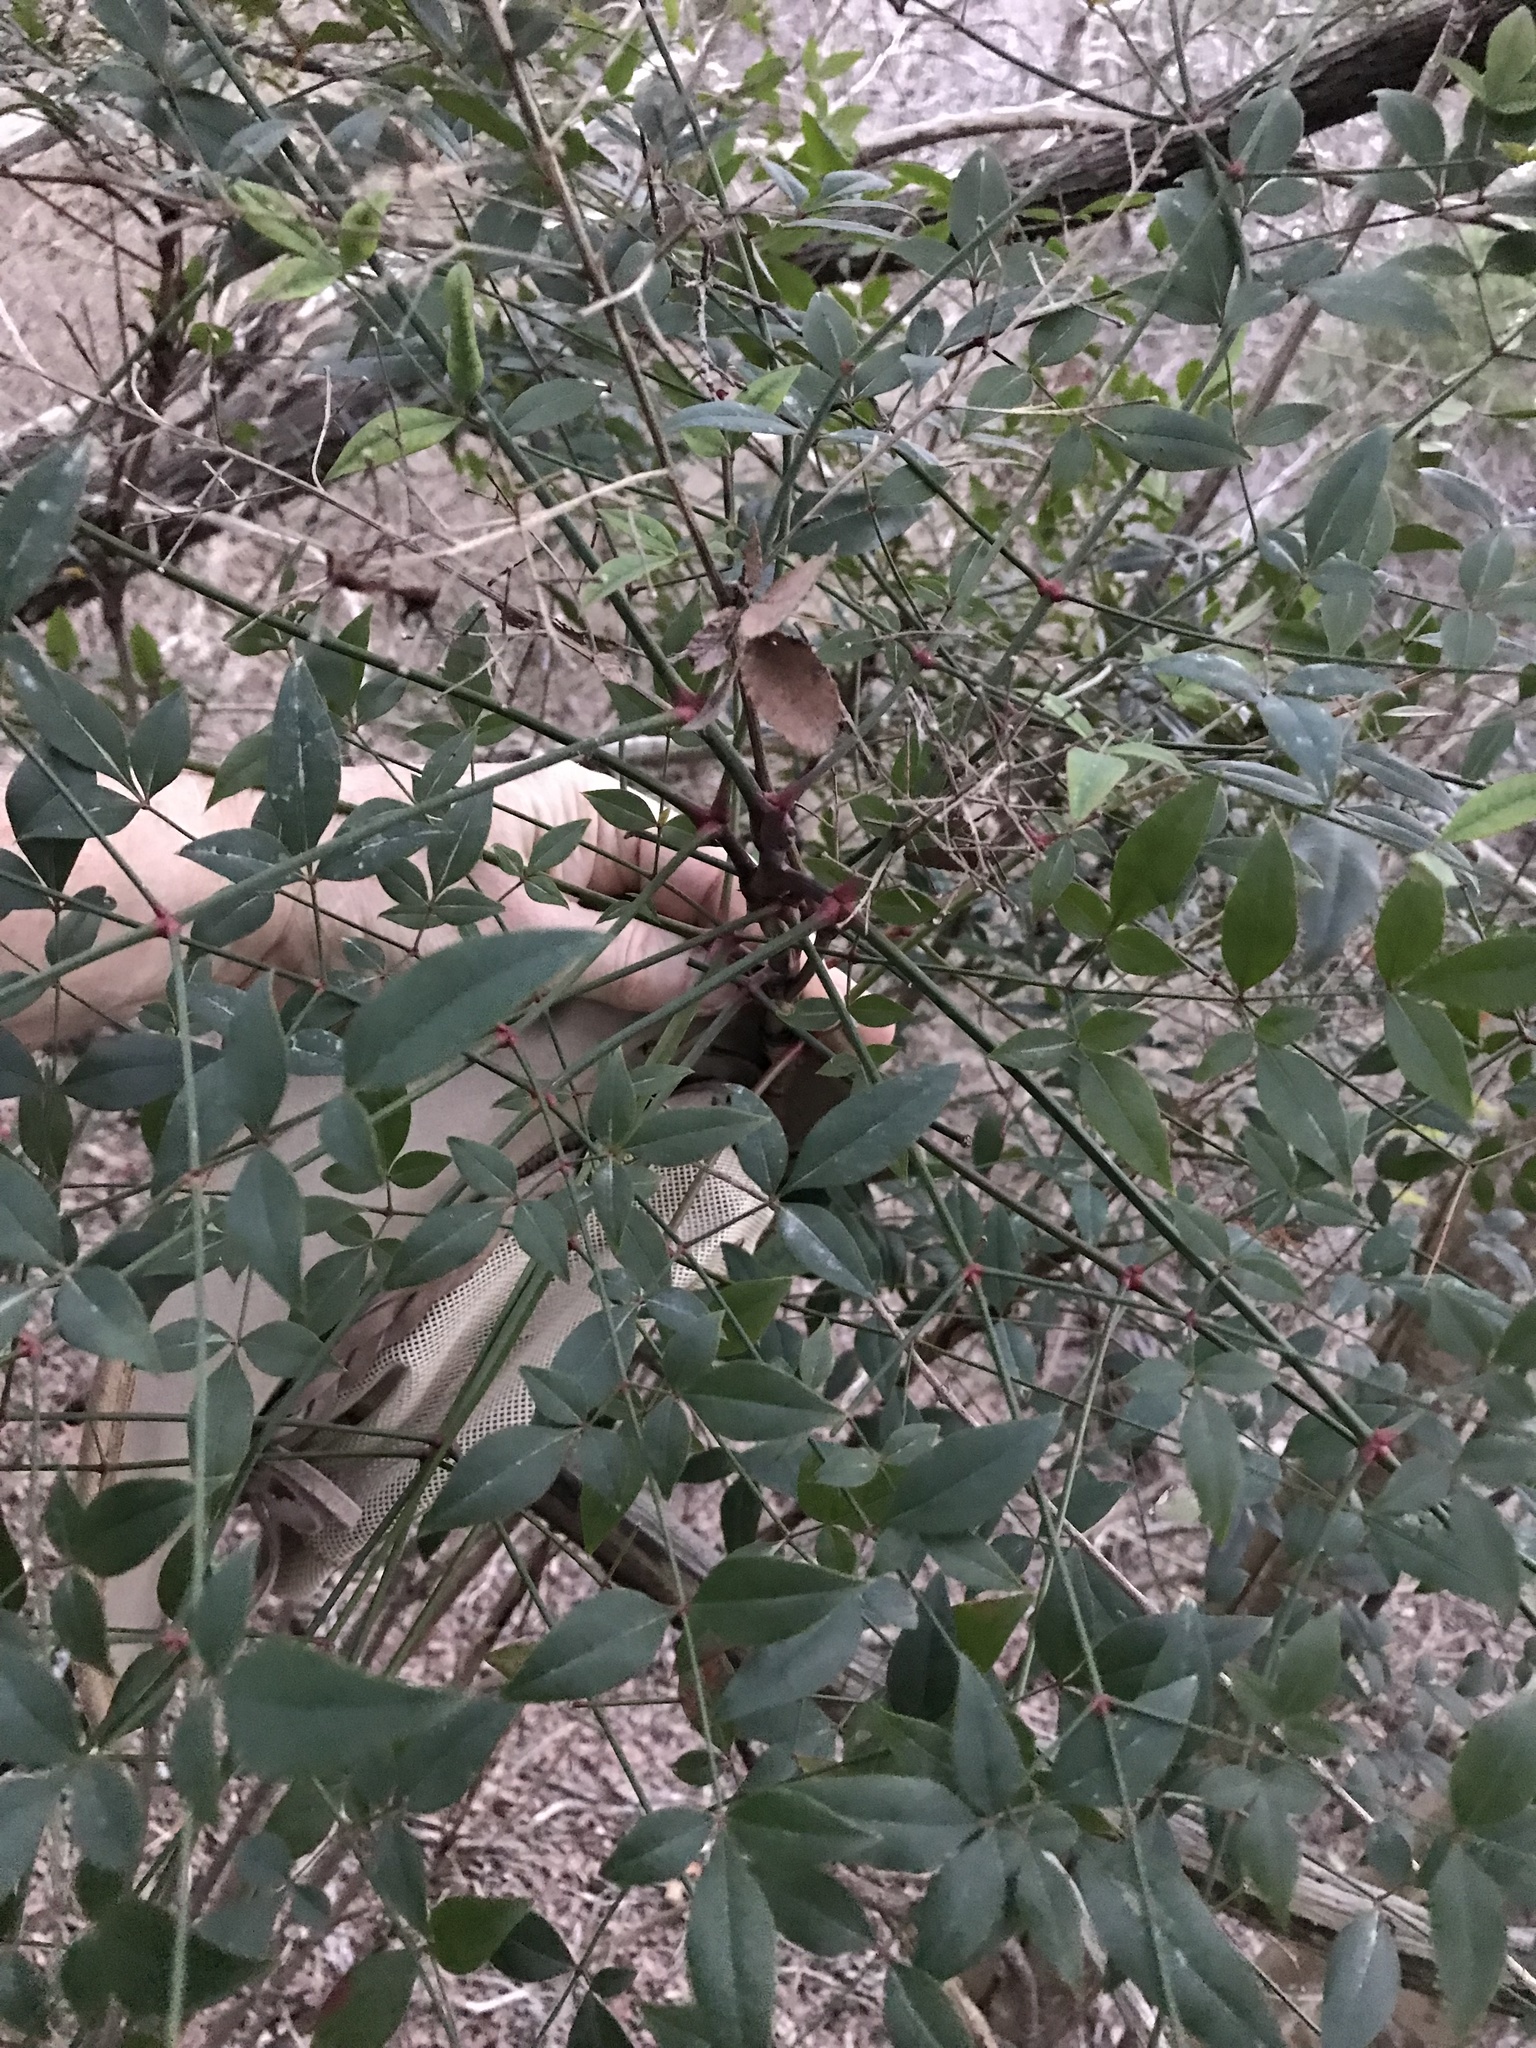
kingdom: Plantae
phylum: Tracheophyta
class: Magnoliopsida
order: Ranunculales
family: Berberidaceae
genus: Nandina
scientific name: Nandina domestica
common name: Sacred bamboo
